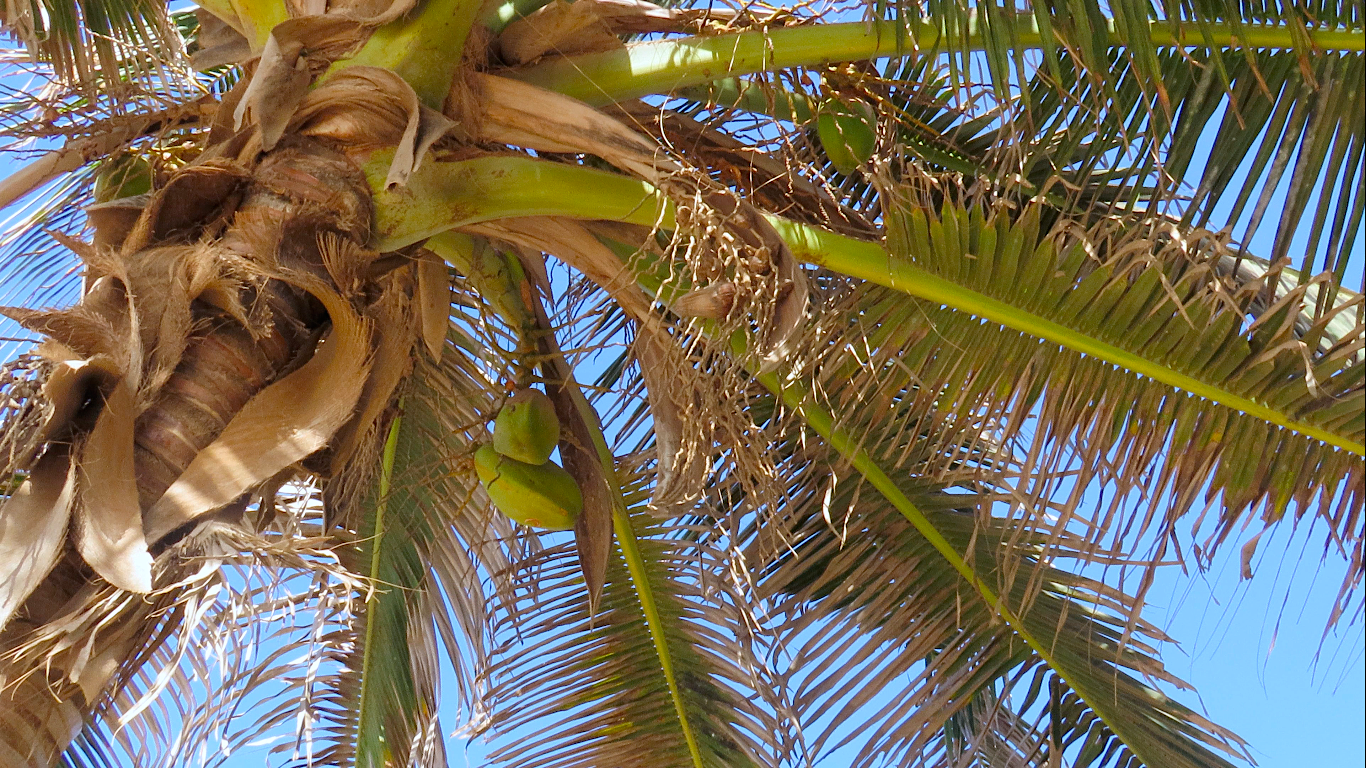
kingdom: Plantae
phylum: Tracheophyta
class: Liliopsida
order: Arecales
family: Arecaceae
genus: Cocos
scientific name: Cocos nucifera
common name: Coconut palm
